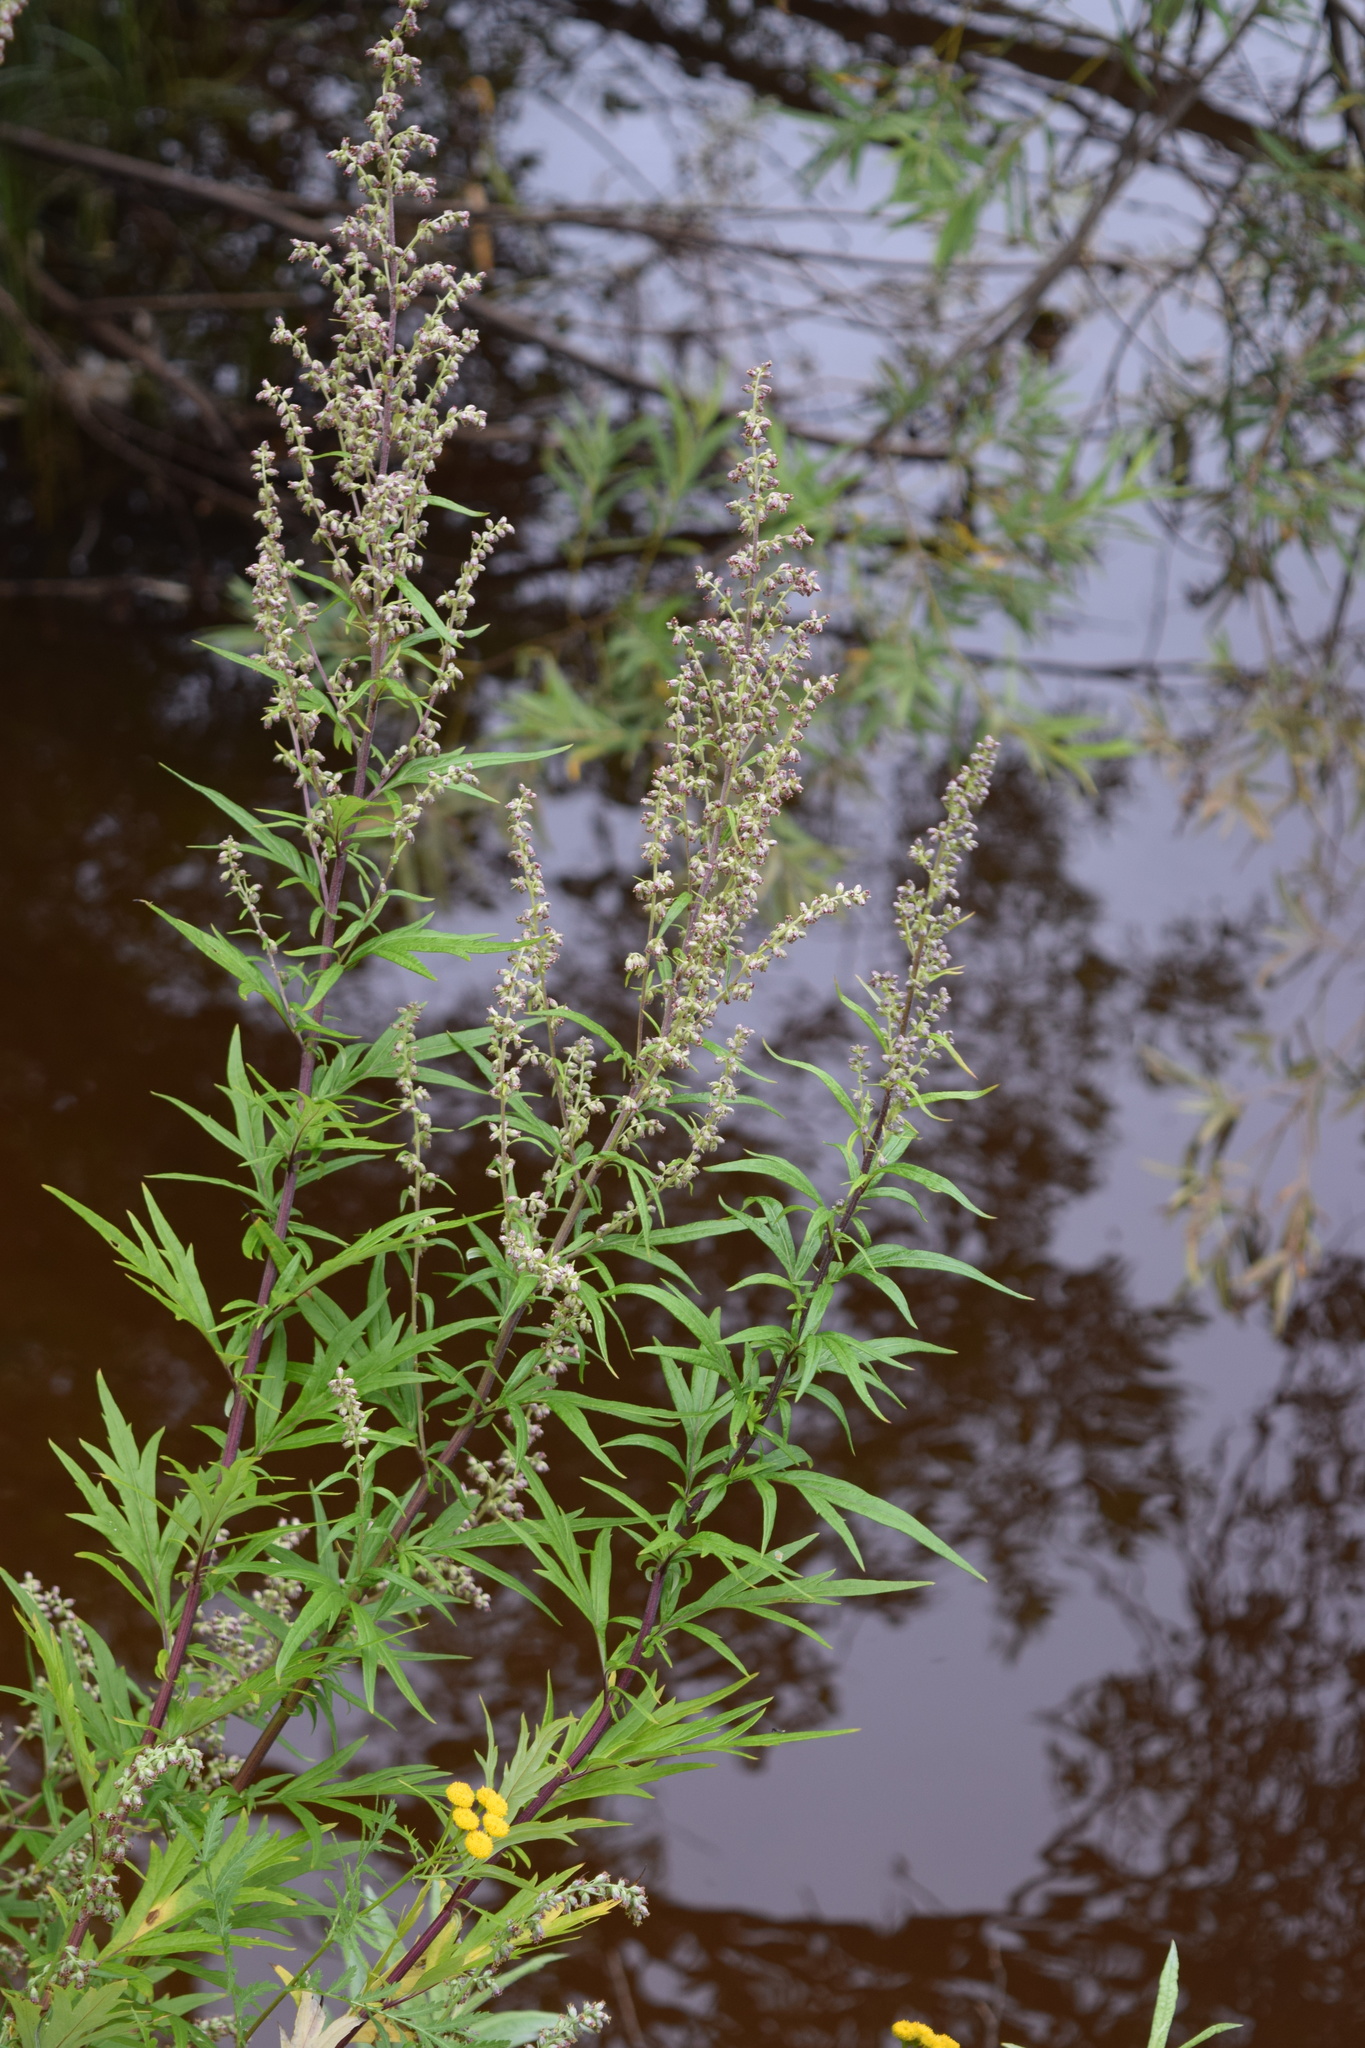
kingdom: Plantae
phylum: Tracheophyta
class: Magnoliopsida
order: Asterales
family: Asteraceae
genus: Artemisia
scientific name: Artemisia vulgaris
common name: Mugwort
